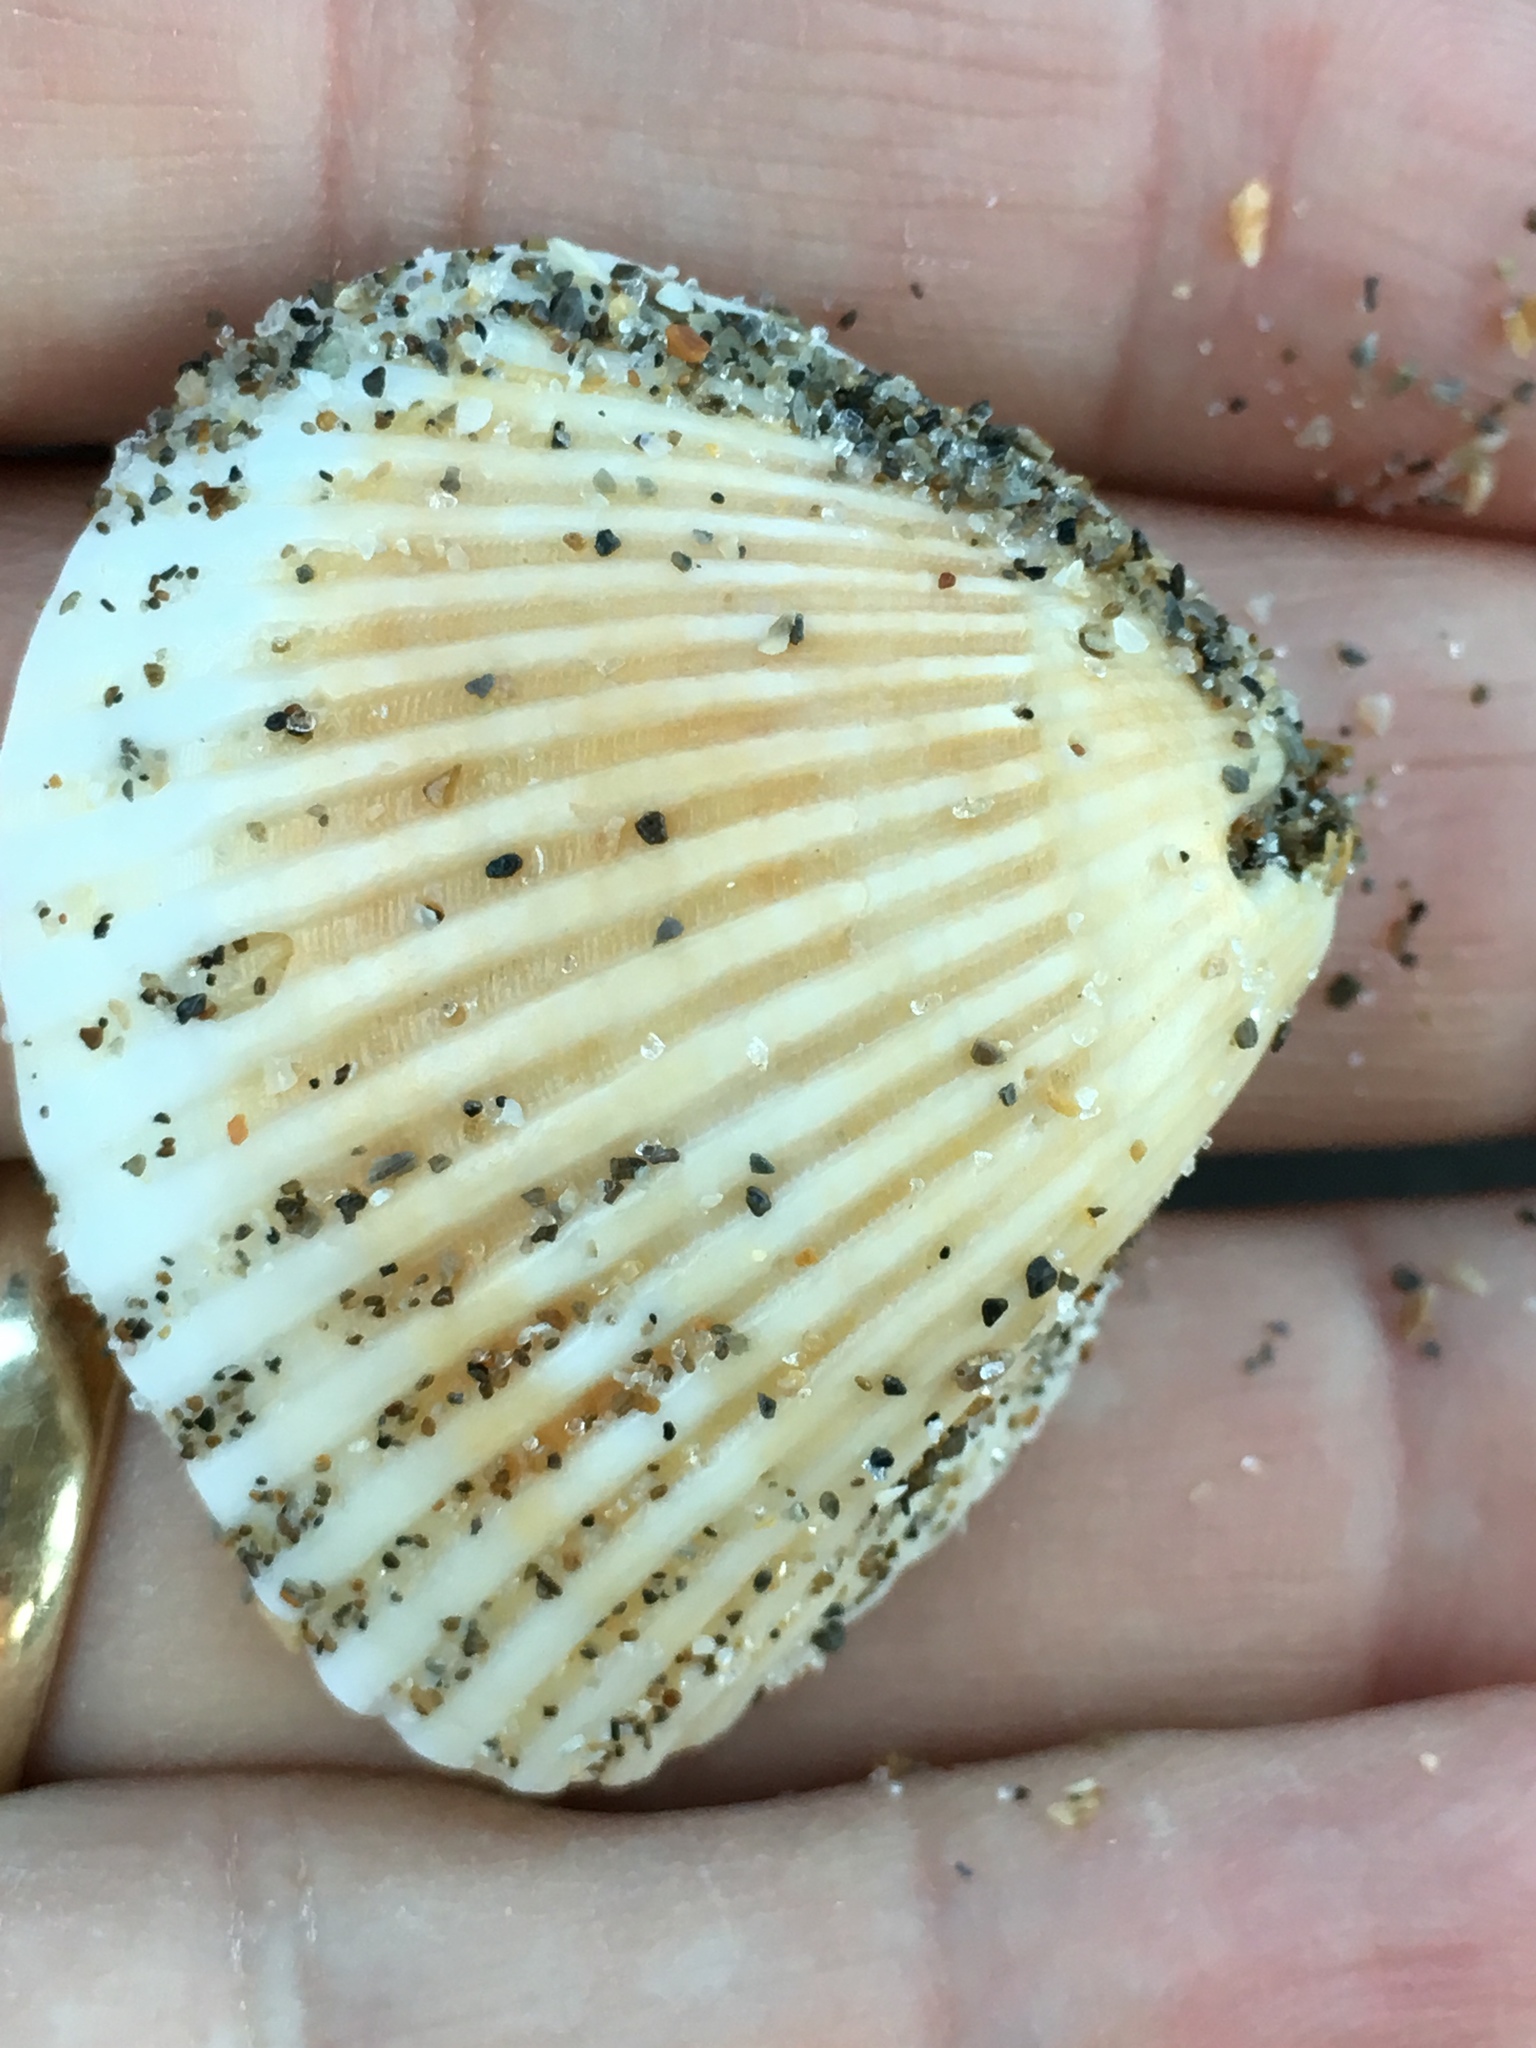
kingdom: Animalia
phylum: Mollusca
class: Bivalvia
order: Arcida
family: Noetiidae
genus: Noetia
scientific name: Noetia ponderosa
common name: Ponderous ark
